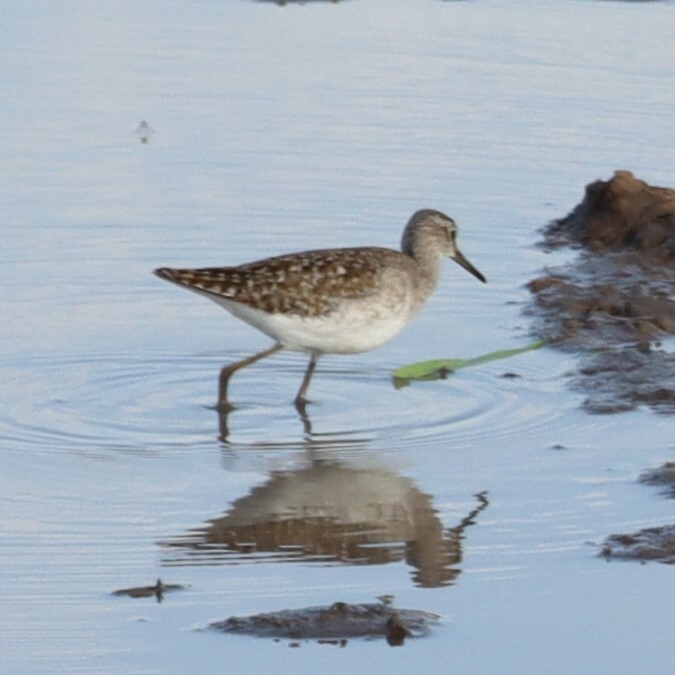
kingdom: Animalia
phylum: Chordata
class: Aves
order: Charadriiformes
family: Scolopacidae
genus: Tringa
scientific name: Tringa glareola
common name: Wood sandpiper
